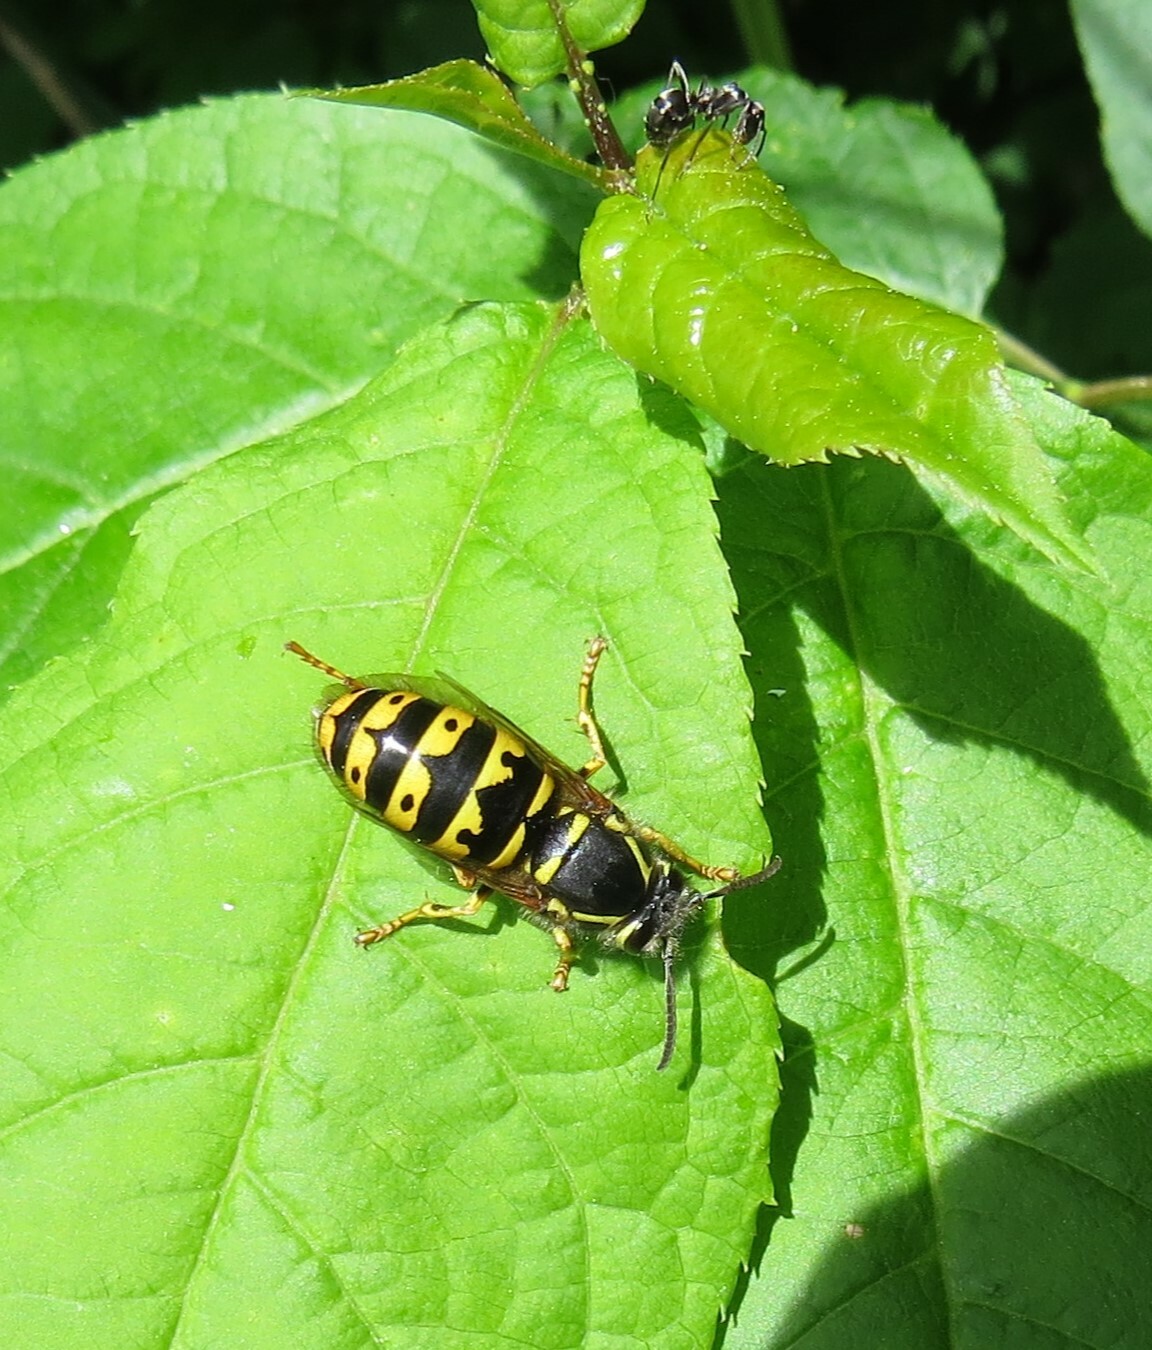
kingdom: Animalia
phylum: Arthropoda
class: Insecta
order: Hymenoptera
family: Vespidae
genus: Dolichovespula
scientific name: Dolichovespula arenaria
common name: Aerial yellowjacket
